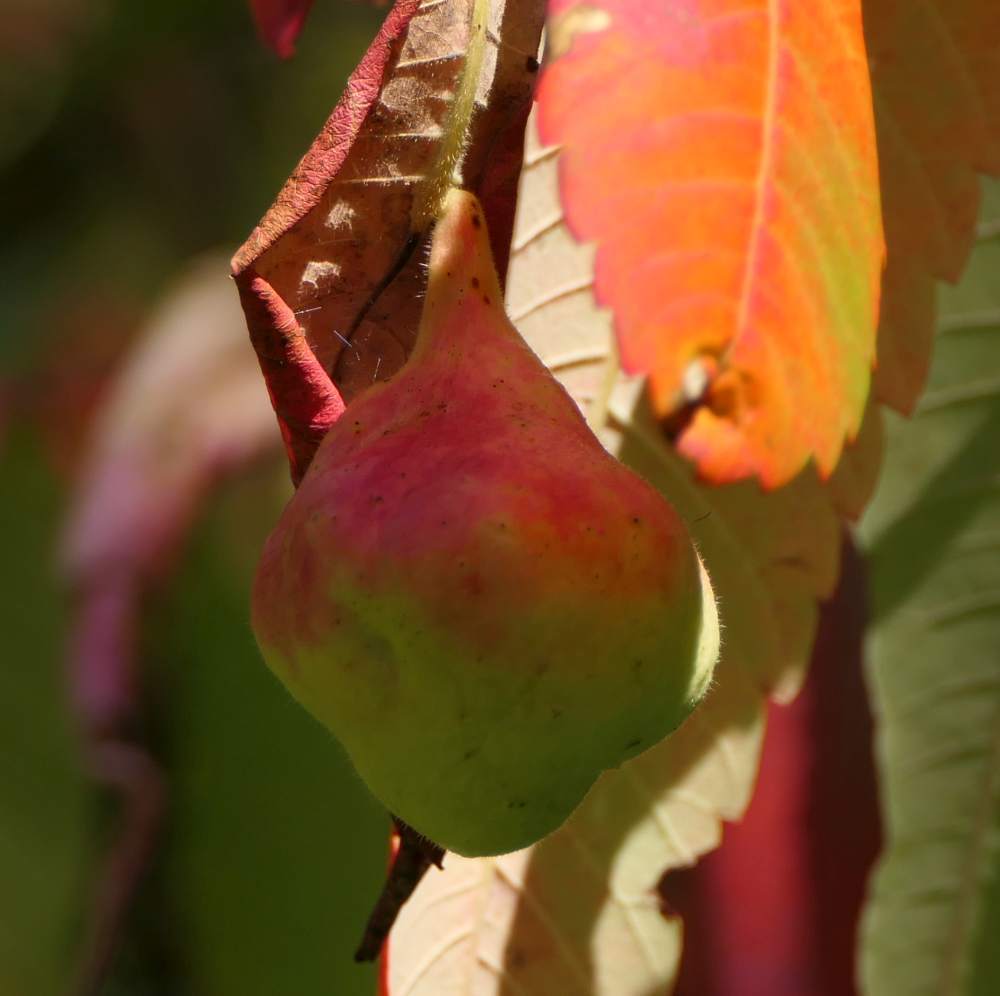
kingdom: Animalia
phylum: Arthropoda
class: Insecta
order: Hemiptera
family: Aphididae
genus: Melaphis
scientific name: Melaphis rhois
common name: Sumac gall aphid
